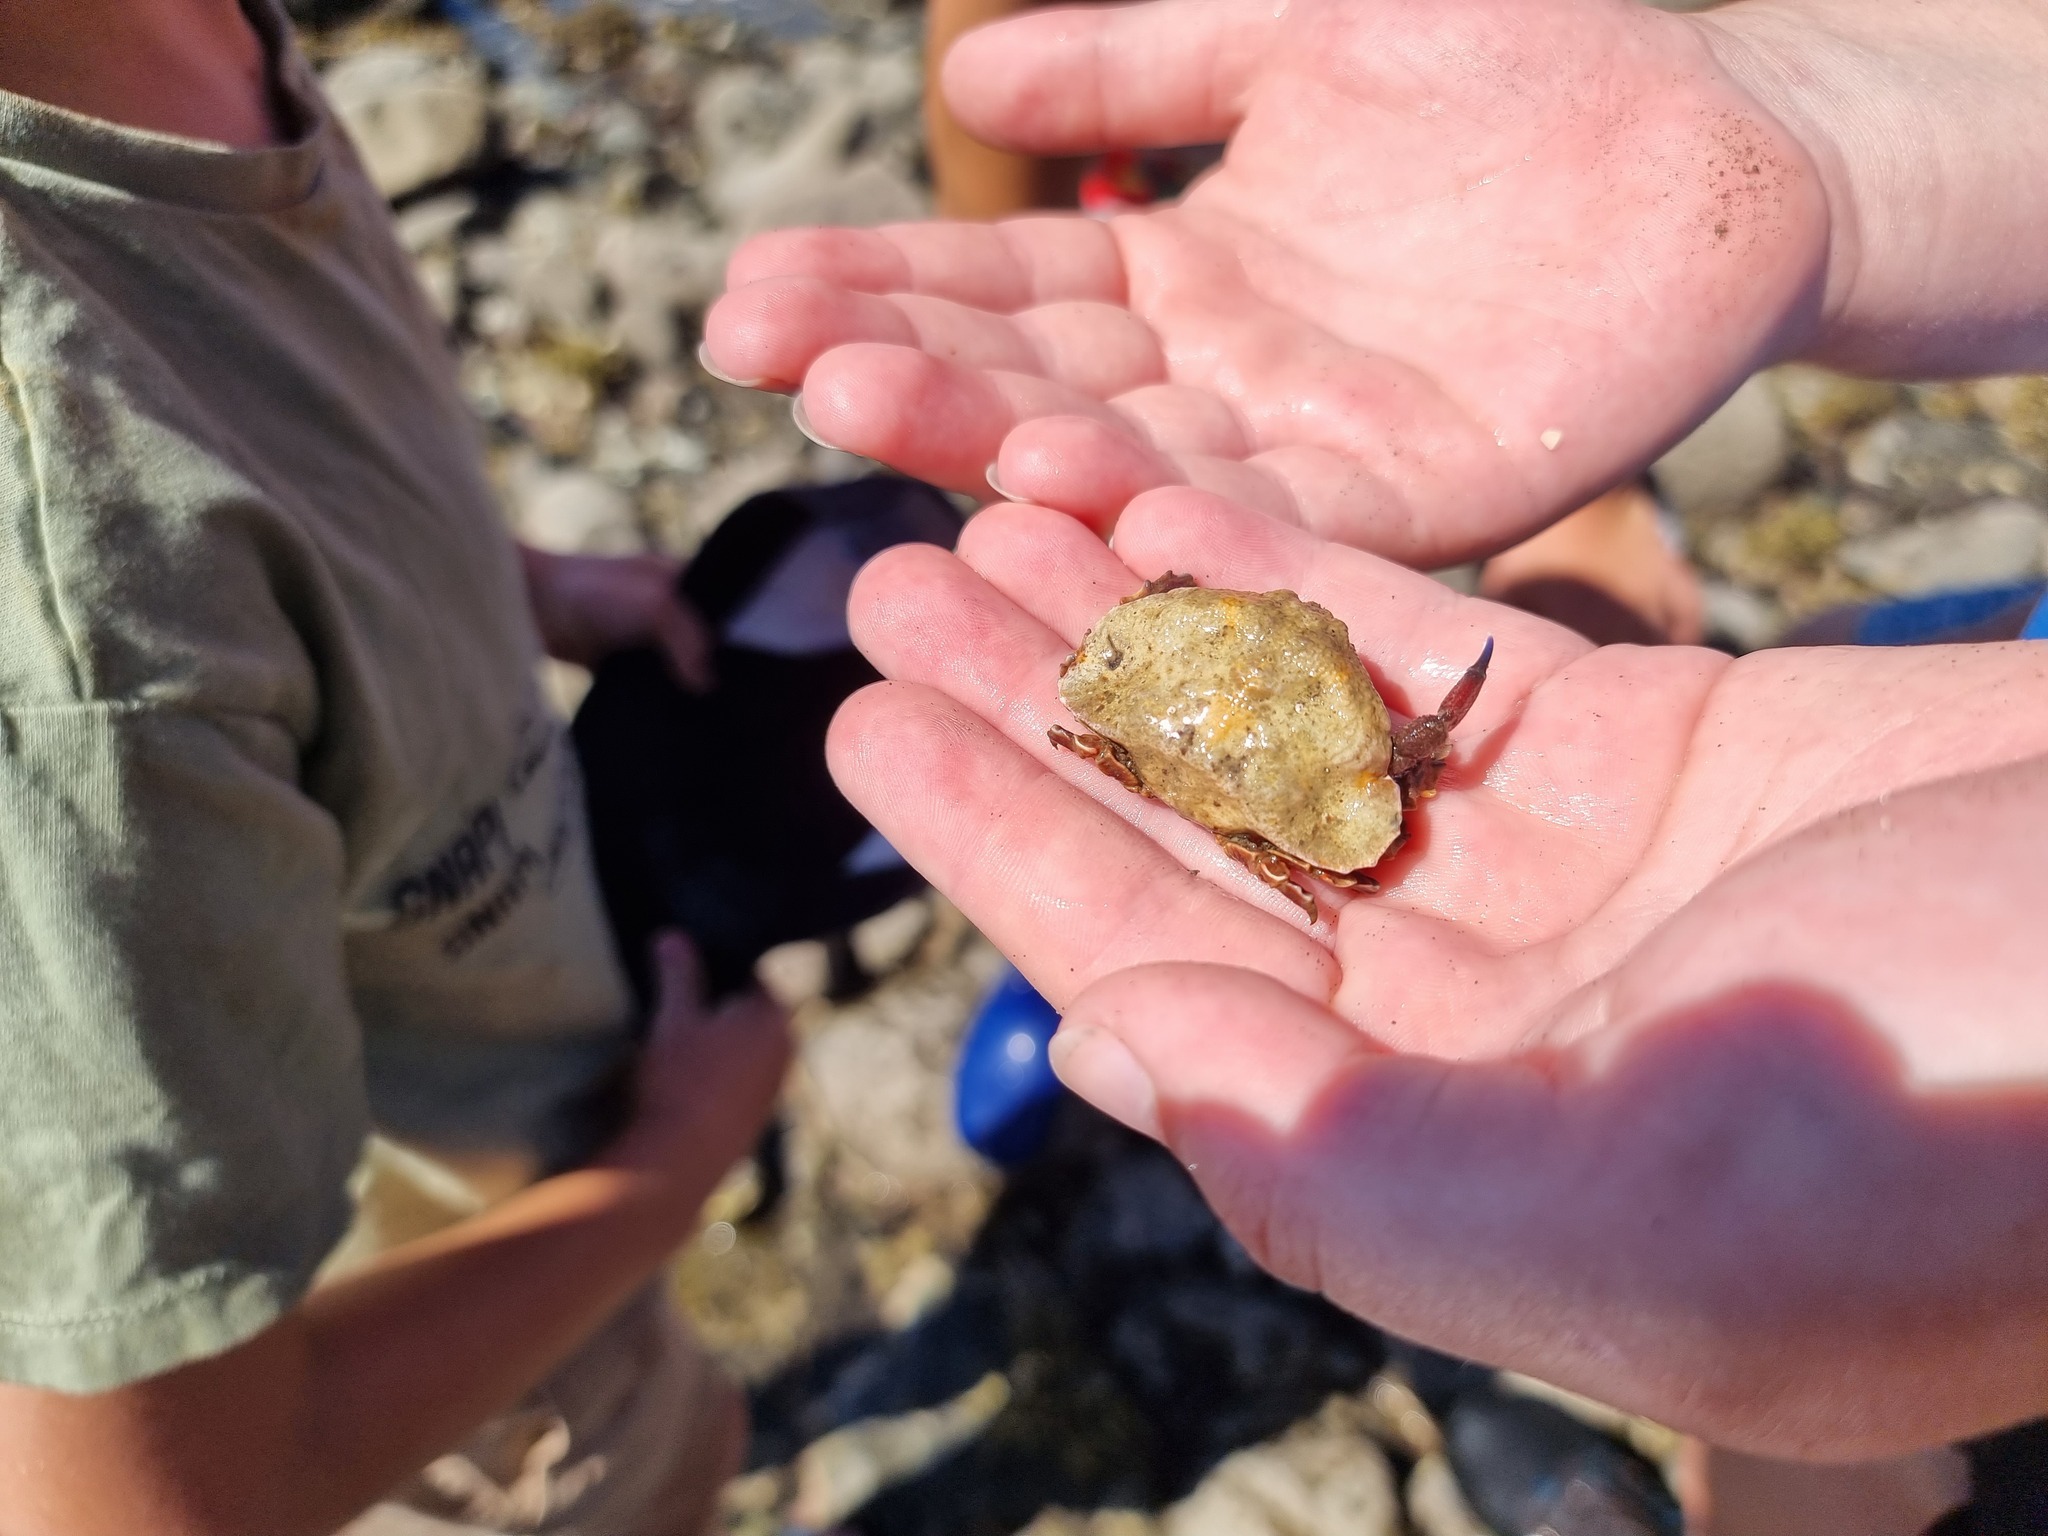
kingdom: Animalia
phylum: Arthropoda
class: Malacostraca
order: Decapoda
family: Majidae
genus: Eurynolambrus
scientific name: Eurynolambrus australis
